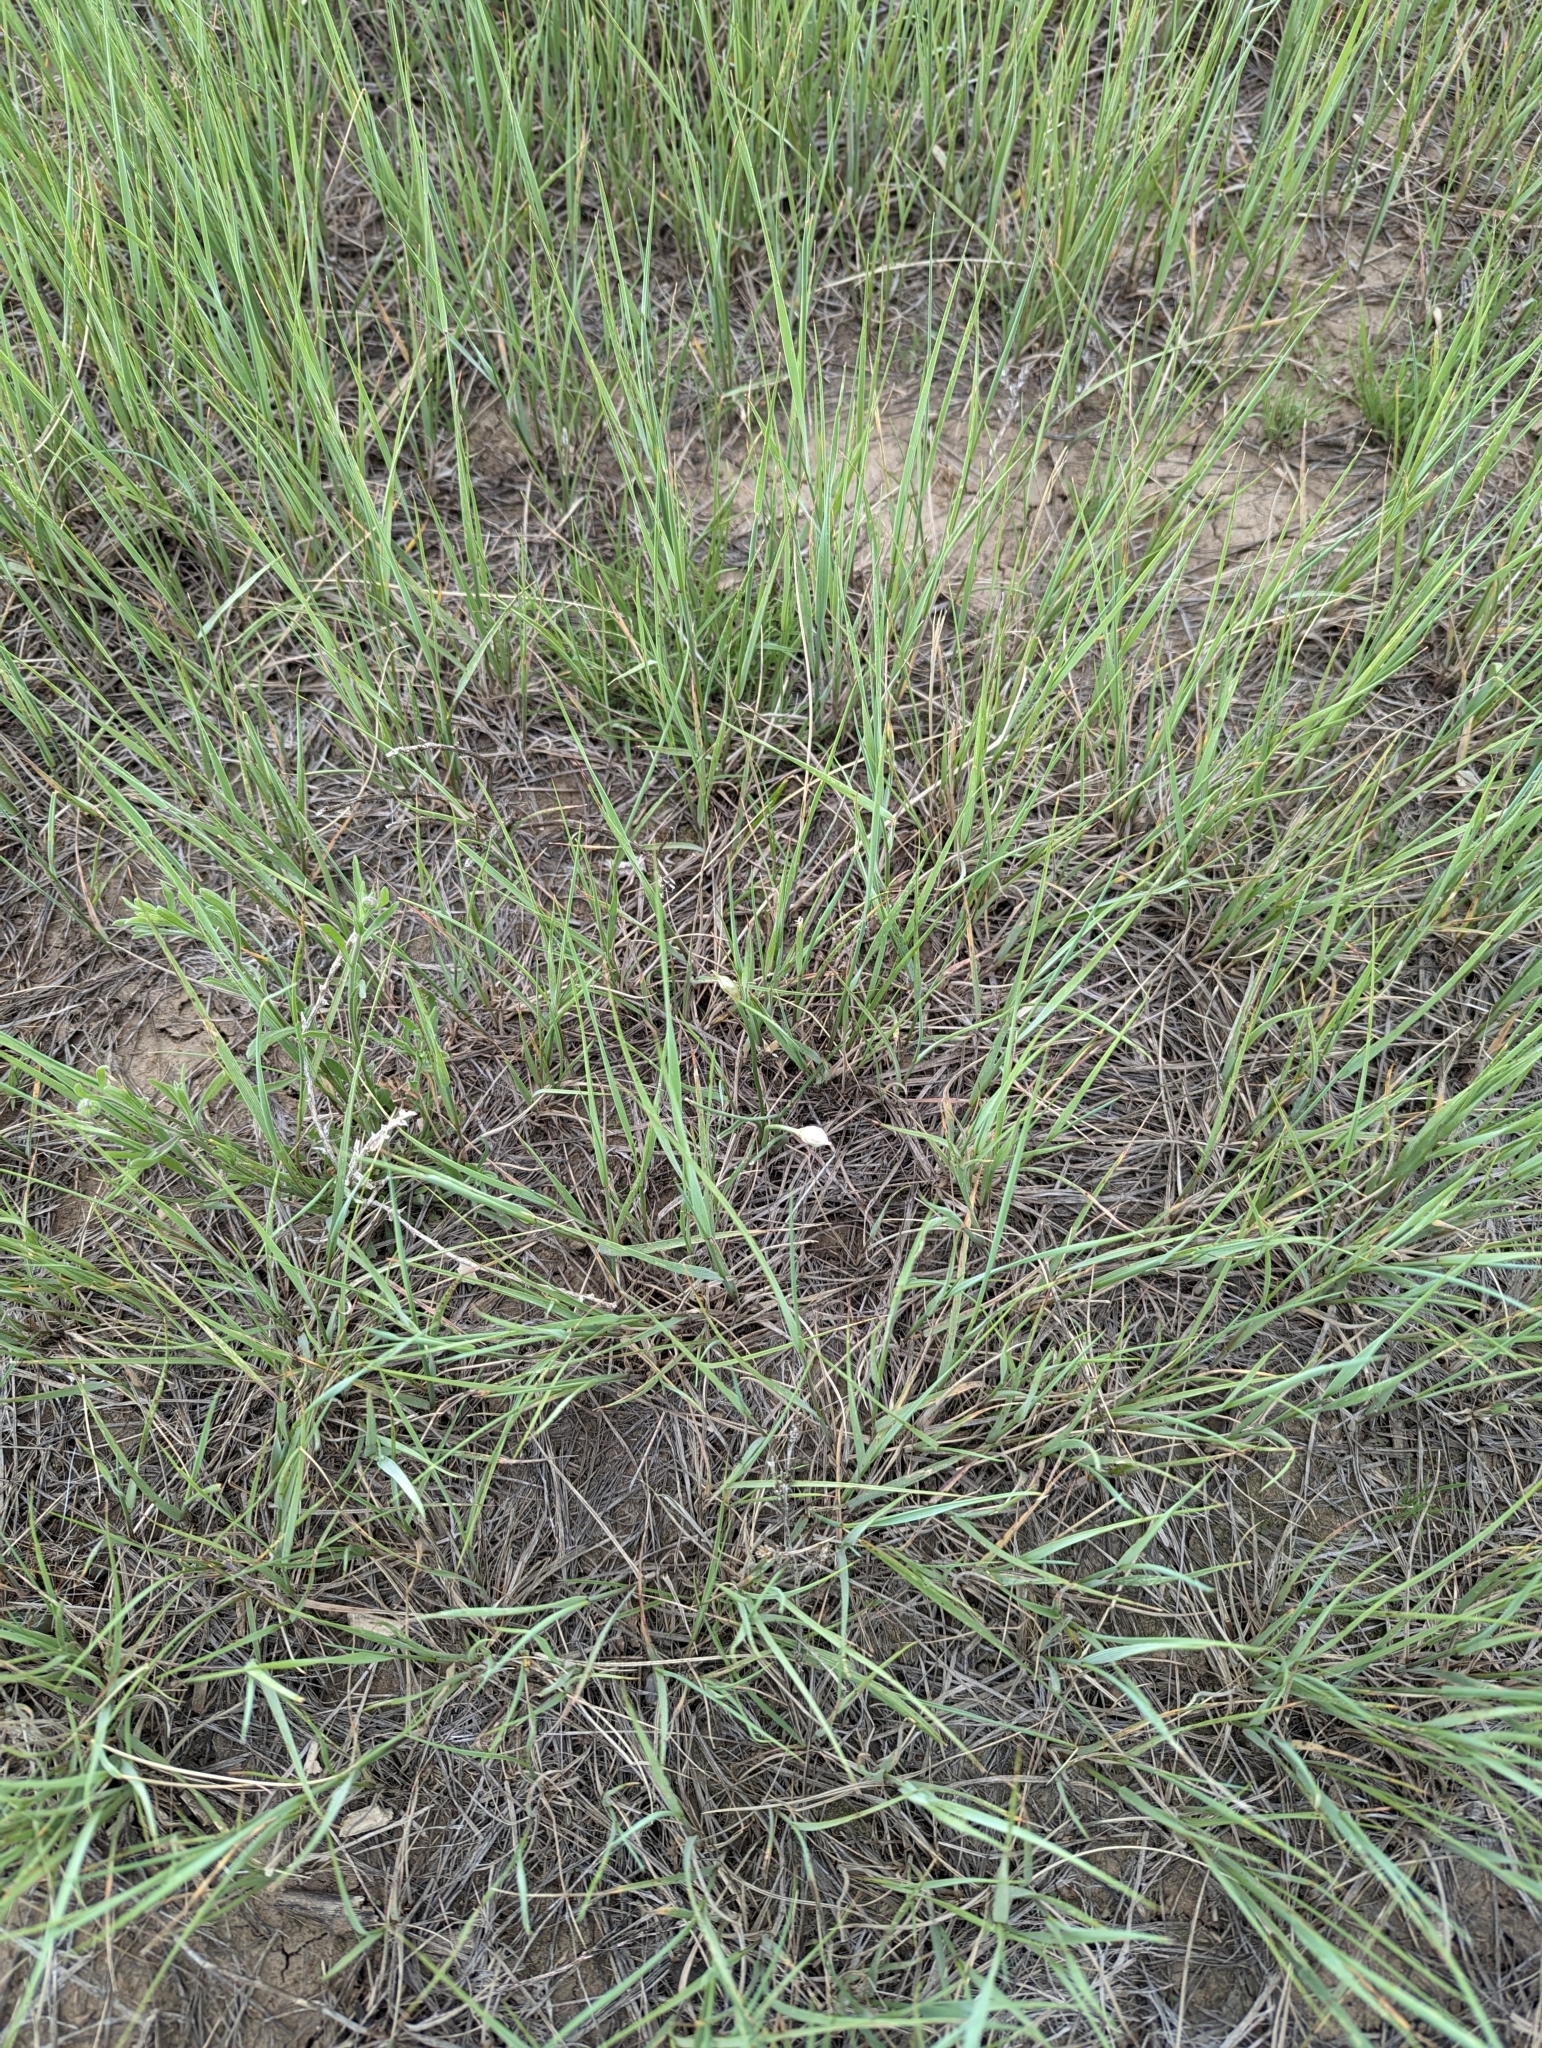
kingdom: Plantae
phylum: Tracheophyta
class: Liliopsida
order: Asparagales
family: Amaryllidaceae
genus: Allium
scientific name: Allium textile
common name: Prairie onion
